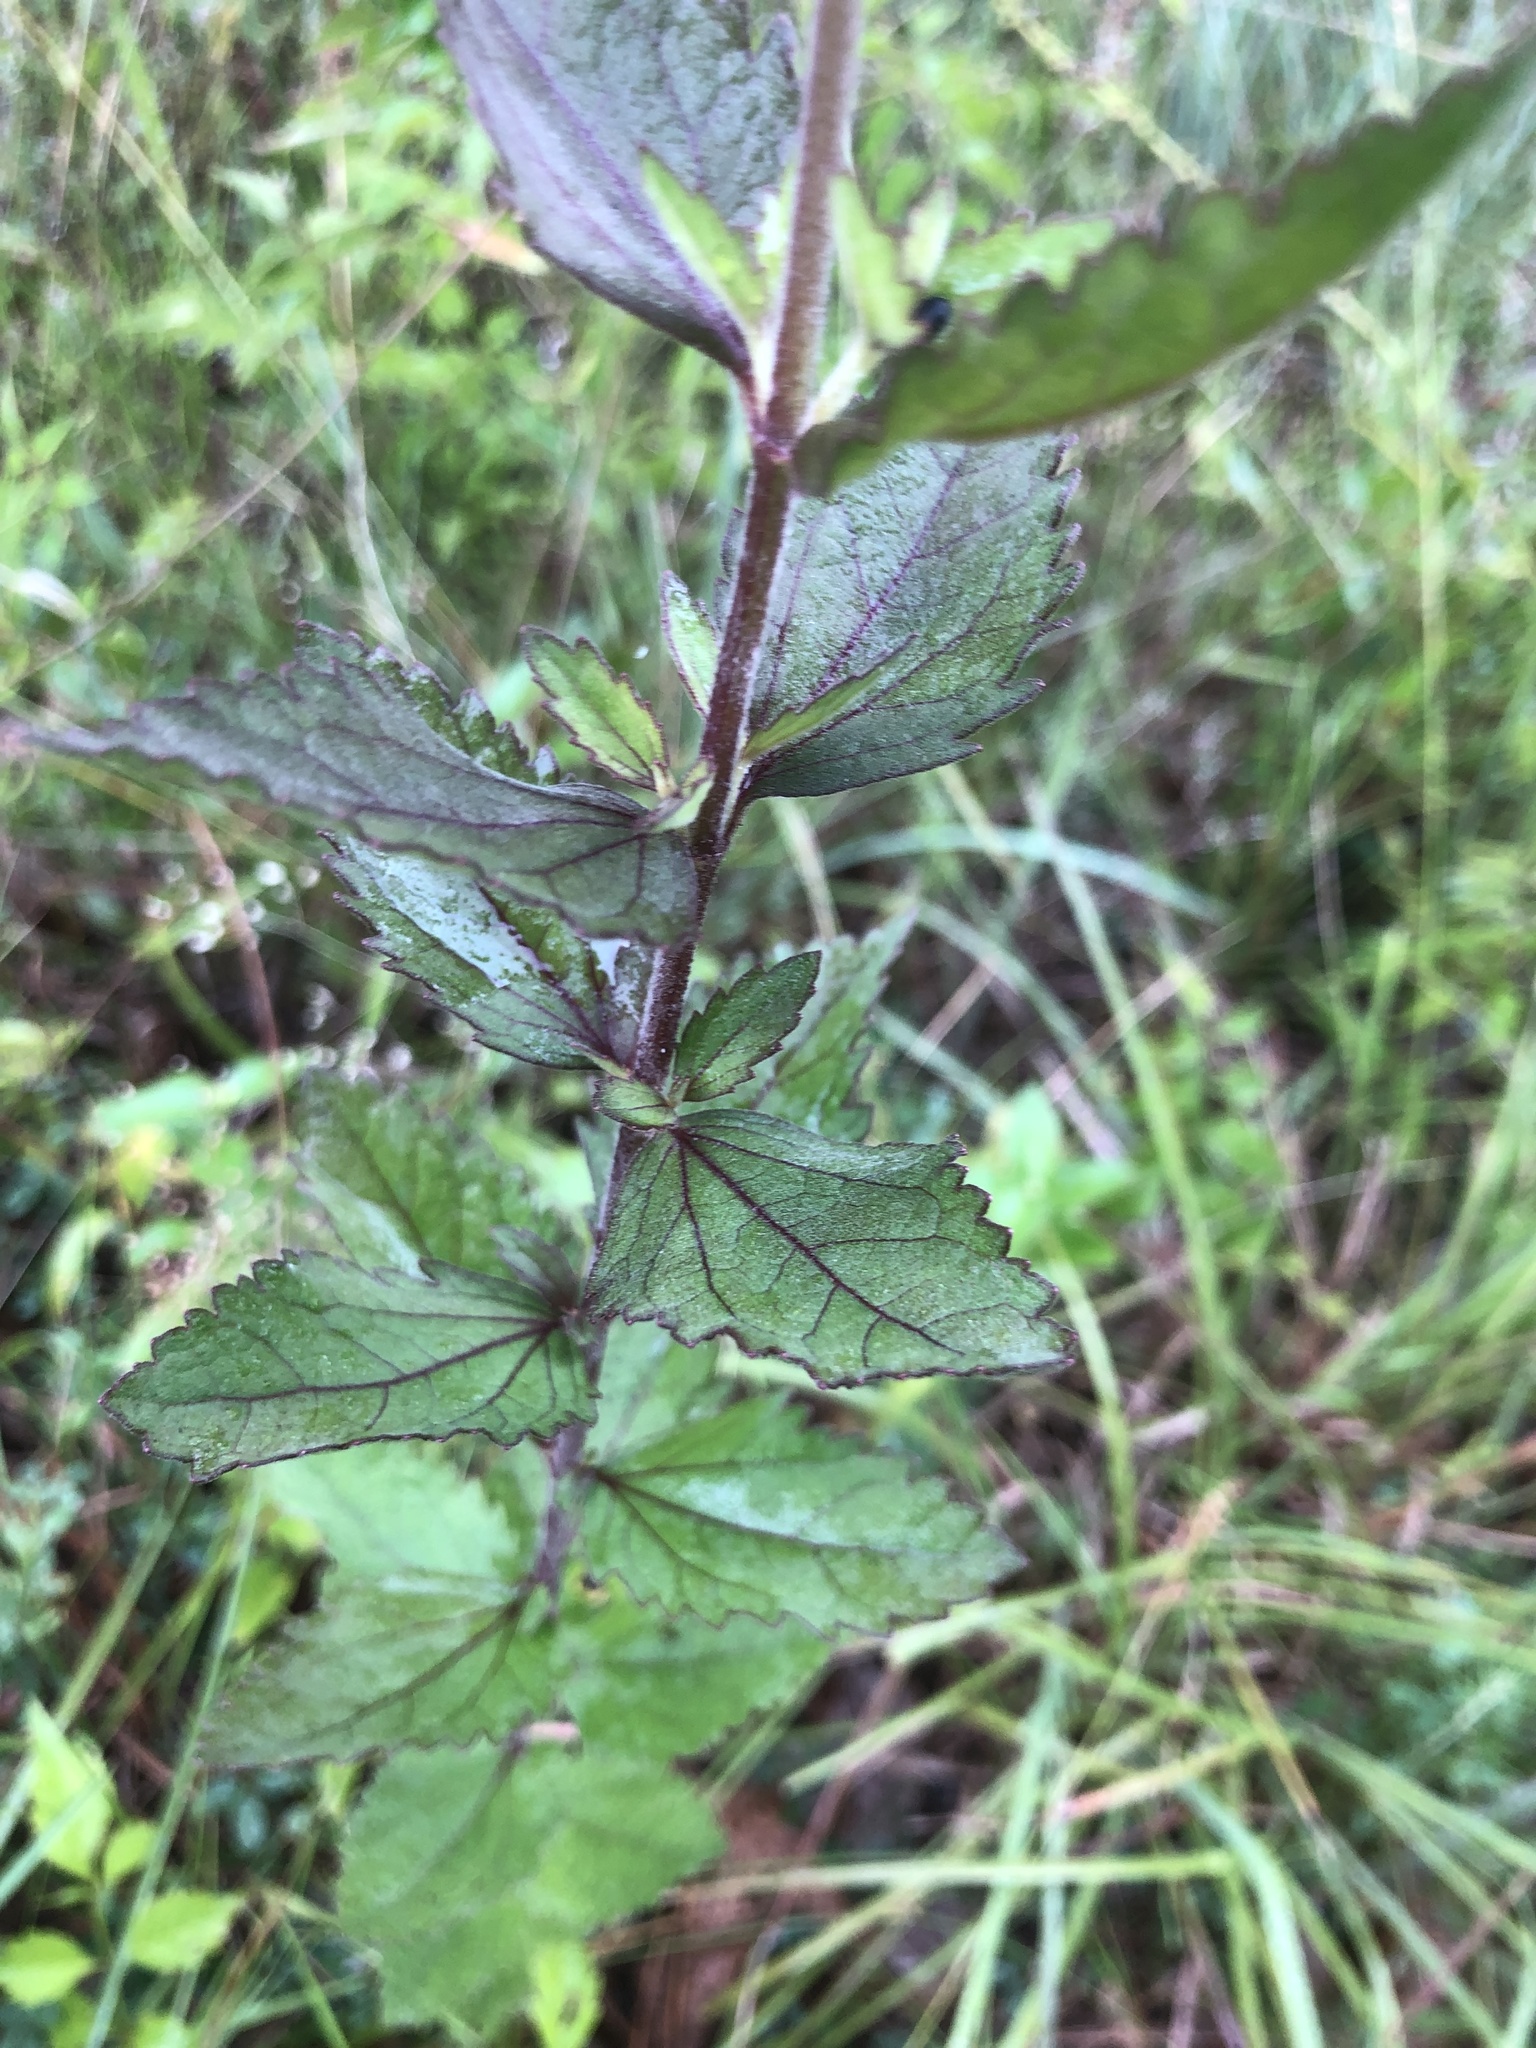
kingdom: Plantae
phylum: Tracheophyta
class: Magnoliopsida
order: Asterales
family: Asteraceae
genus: Eupatorium
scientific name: Eupatorium rotundifolium
